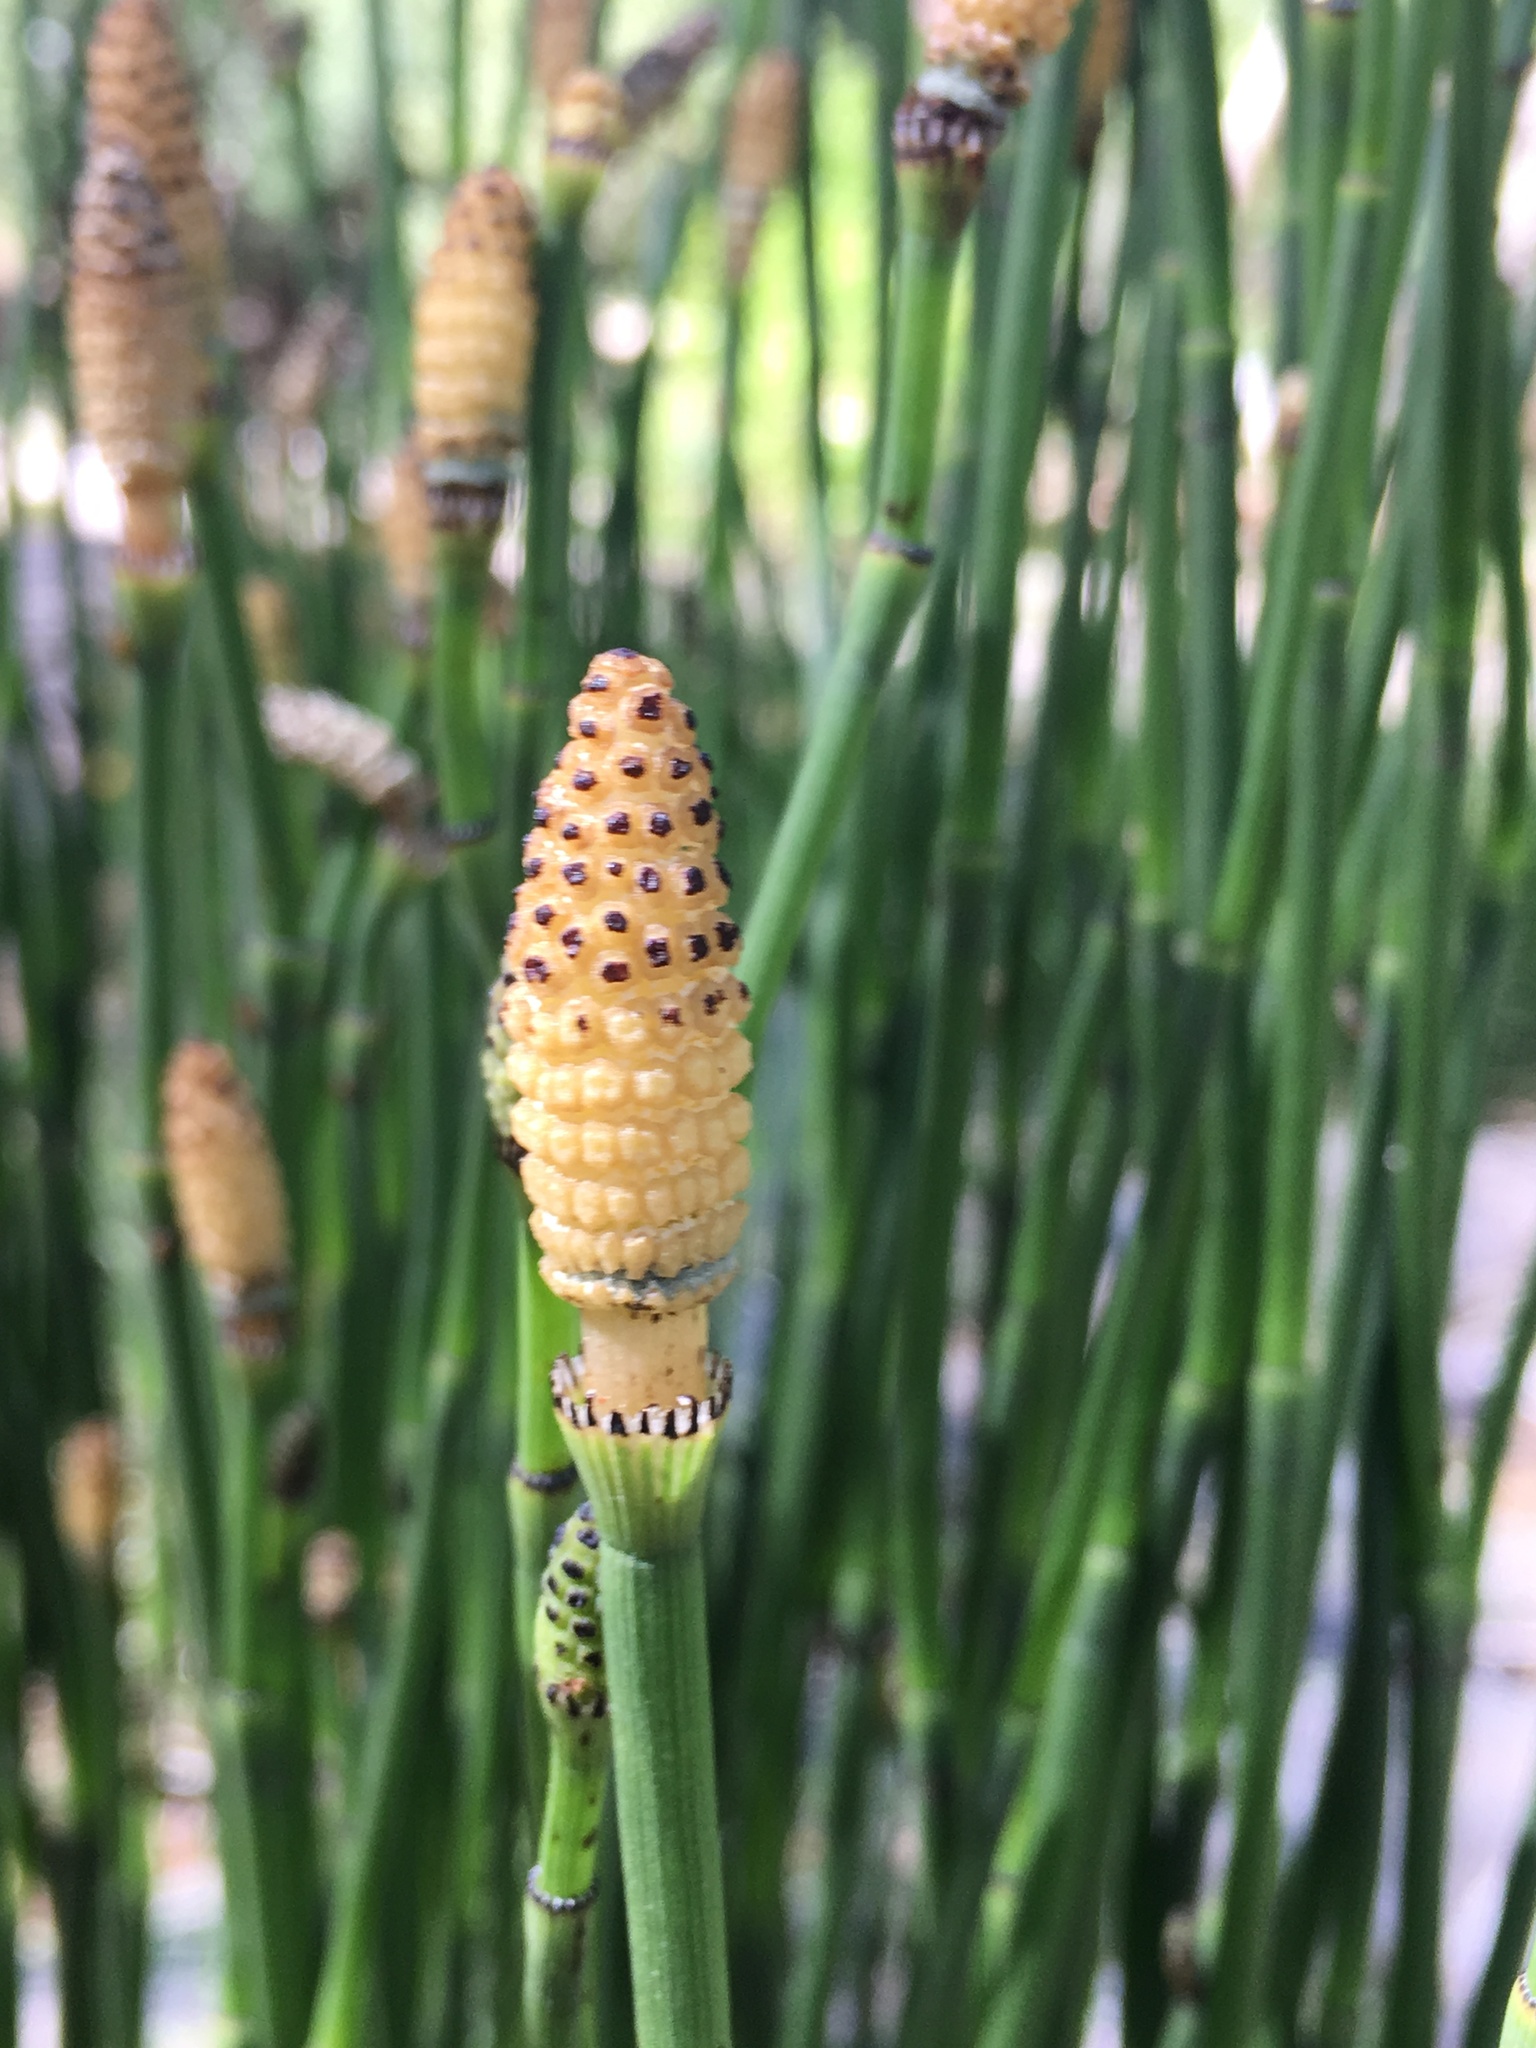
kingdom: Plantae
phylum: Tracheophyta
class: Polypodiopsida
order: Equisetales
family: Equisetaceae
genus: Equisetum
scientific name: Equisetum laevigatum
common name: Smooth scouring-rush
